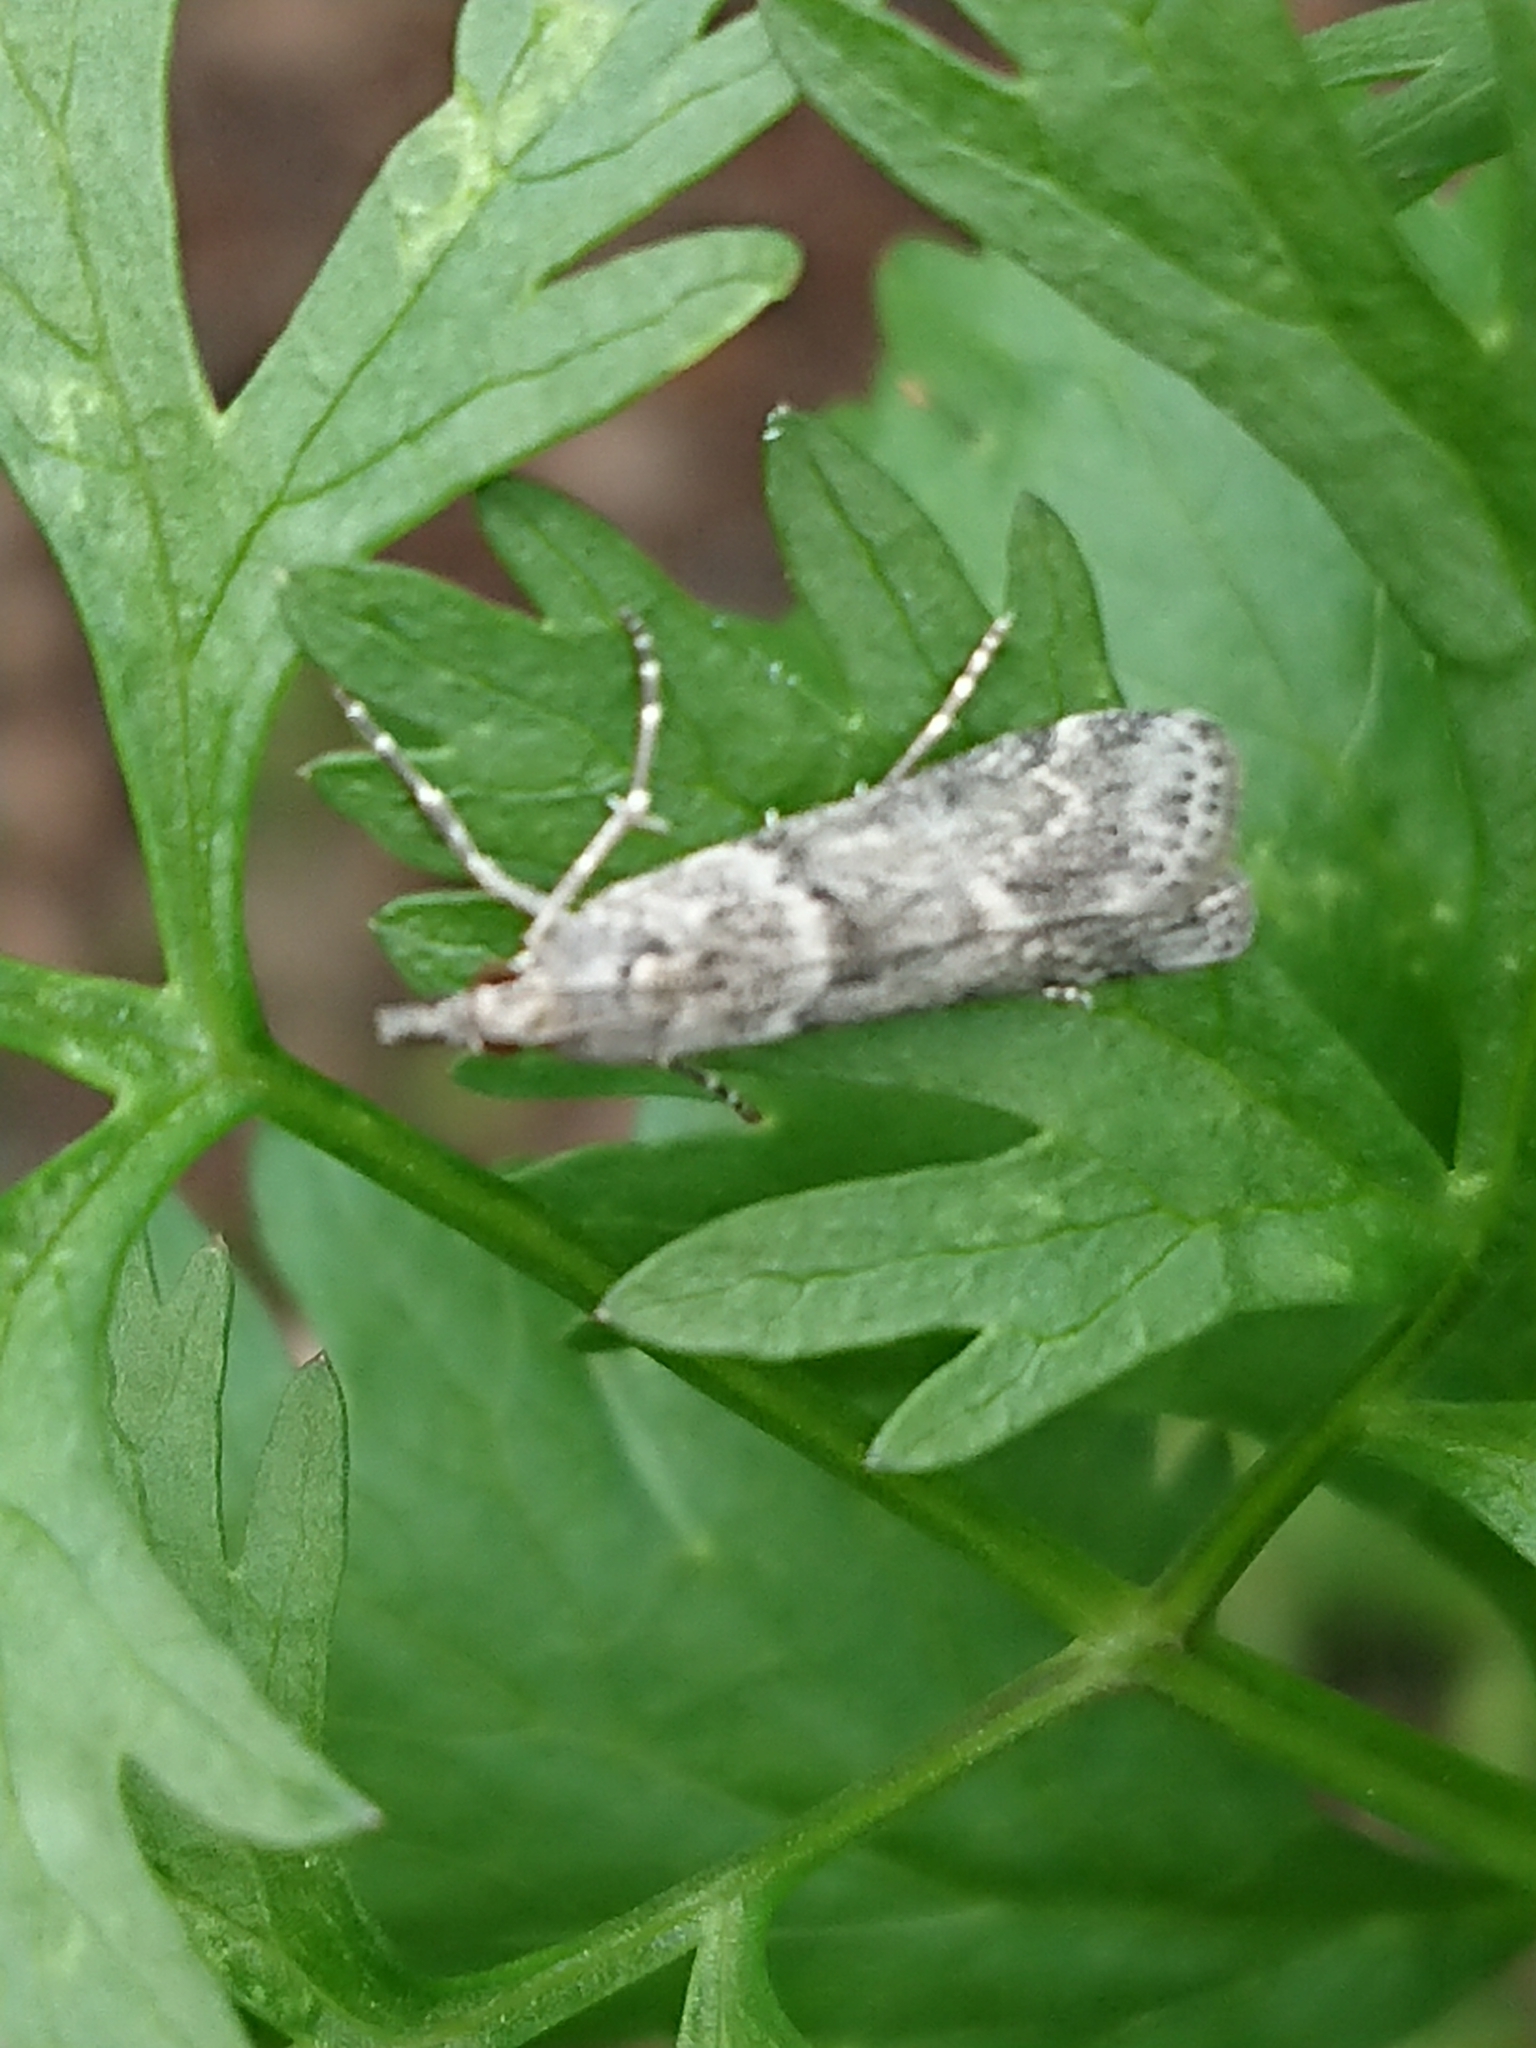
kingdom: Animalia
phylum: Arthropoda
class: Insecta
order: Lepidoptera
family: Crambidae
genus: Eudonia
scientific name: Eudonia leptalea
